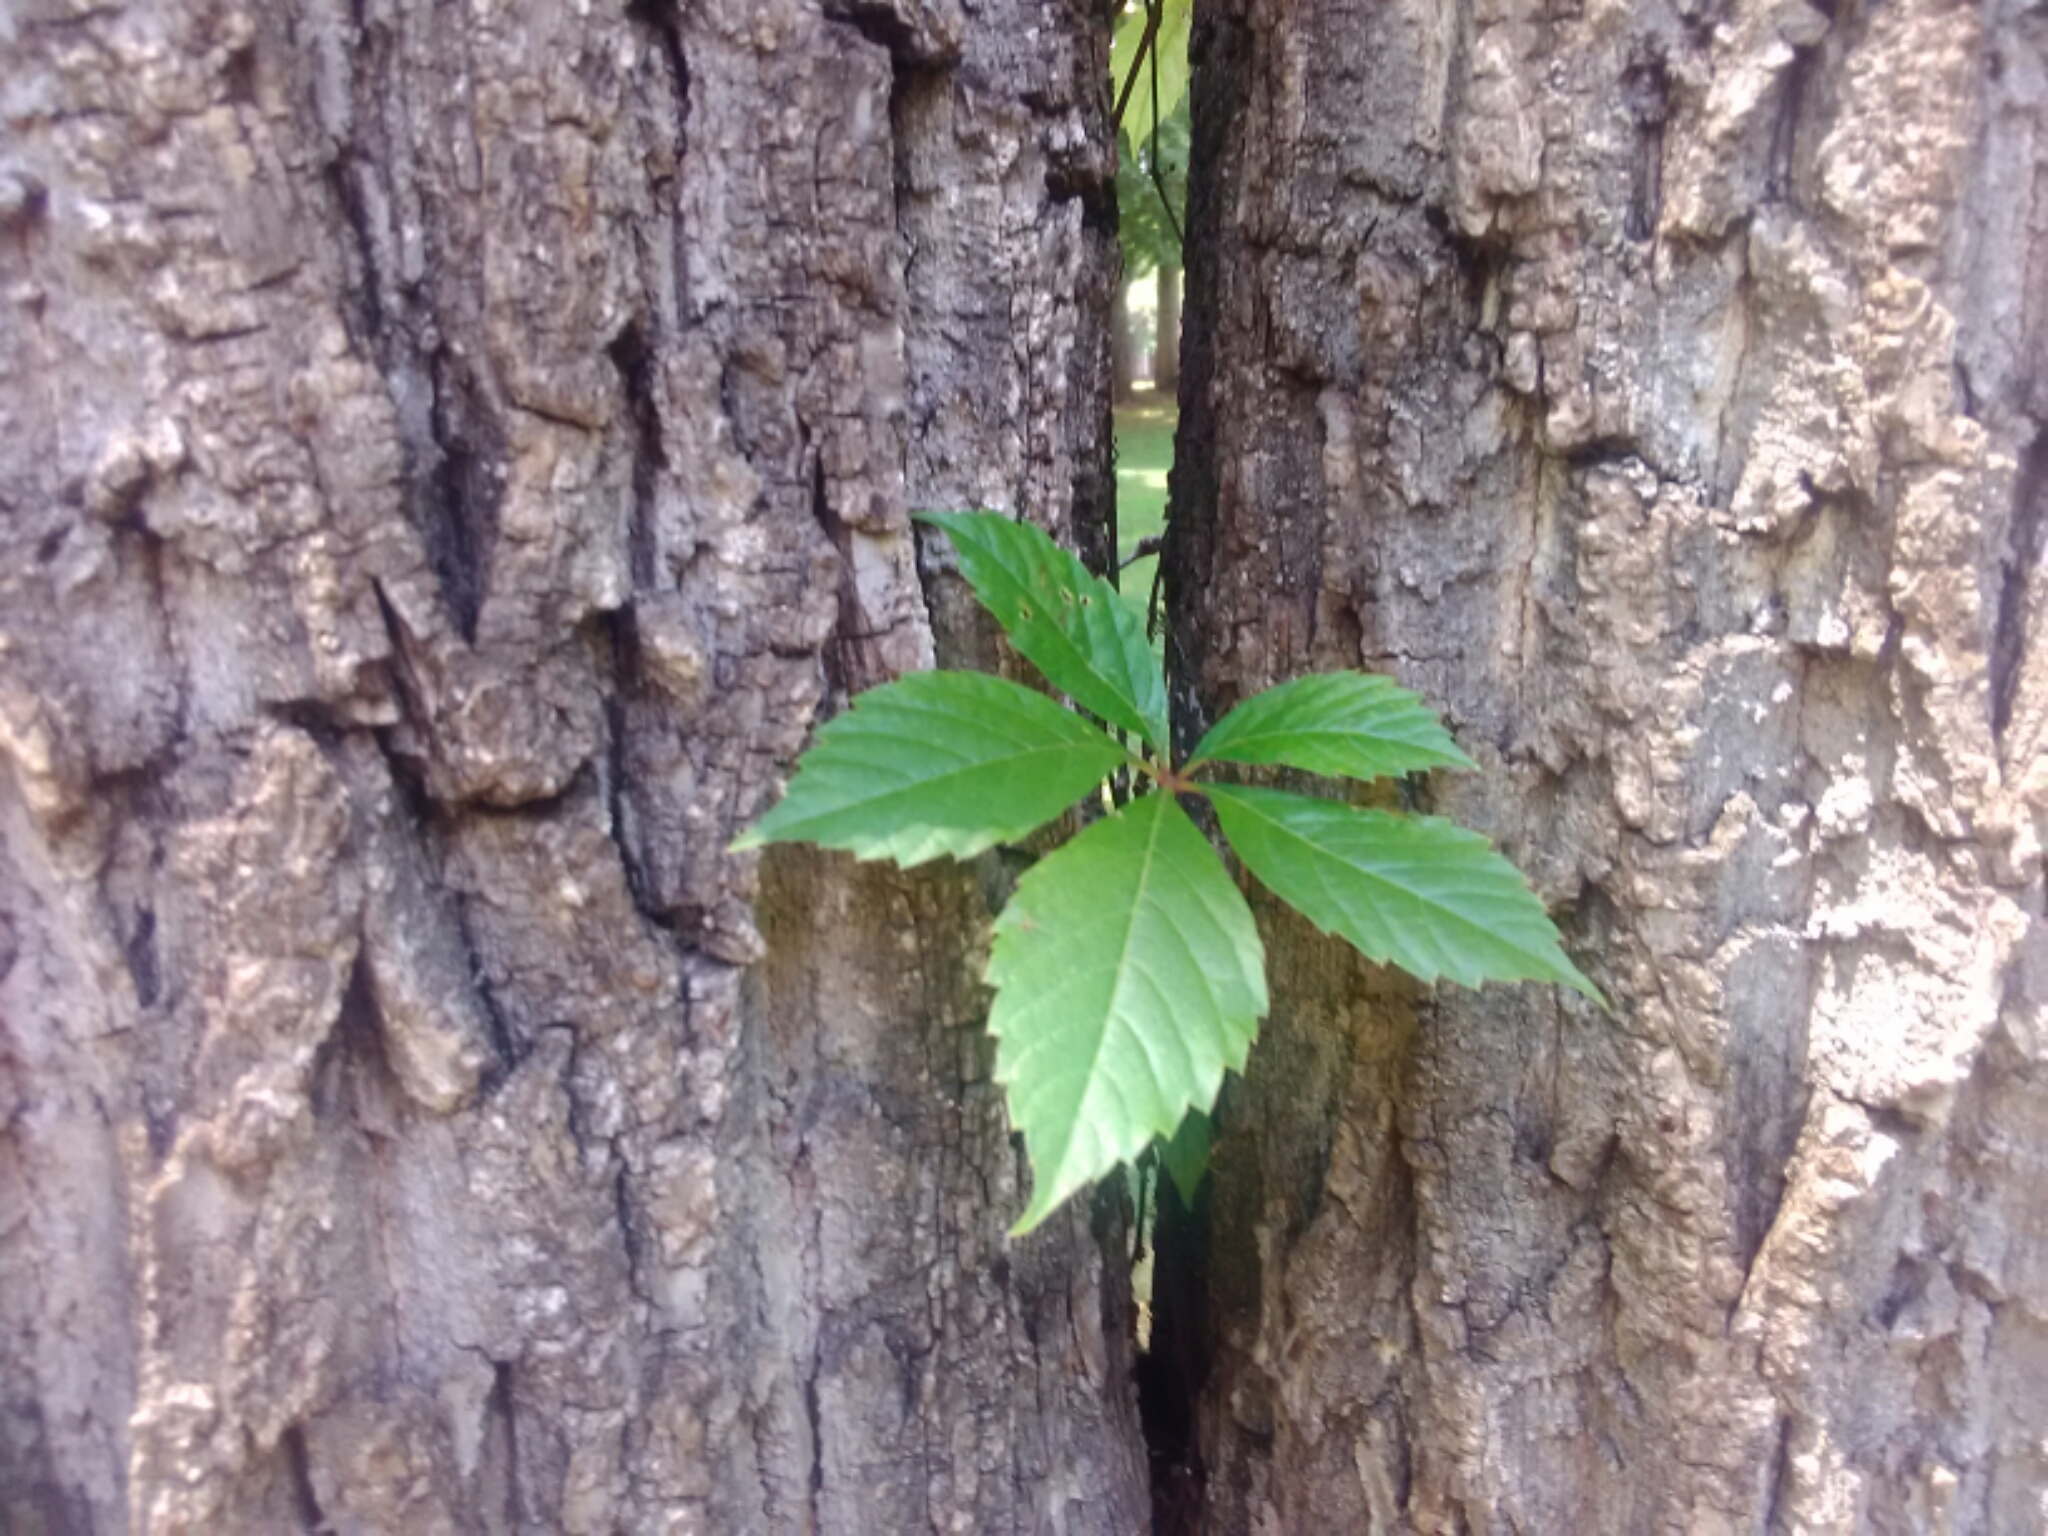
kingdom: Plantae
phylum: Tracheophyta
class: Magnoliopsida
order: Vitales
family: Vitaceae
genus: Parthenocissus
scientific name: Parthenocissus quinquefolia
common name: Virginia-creeper
